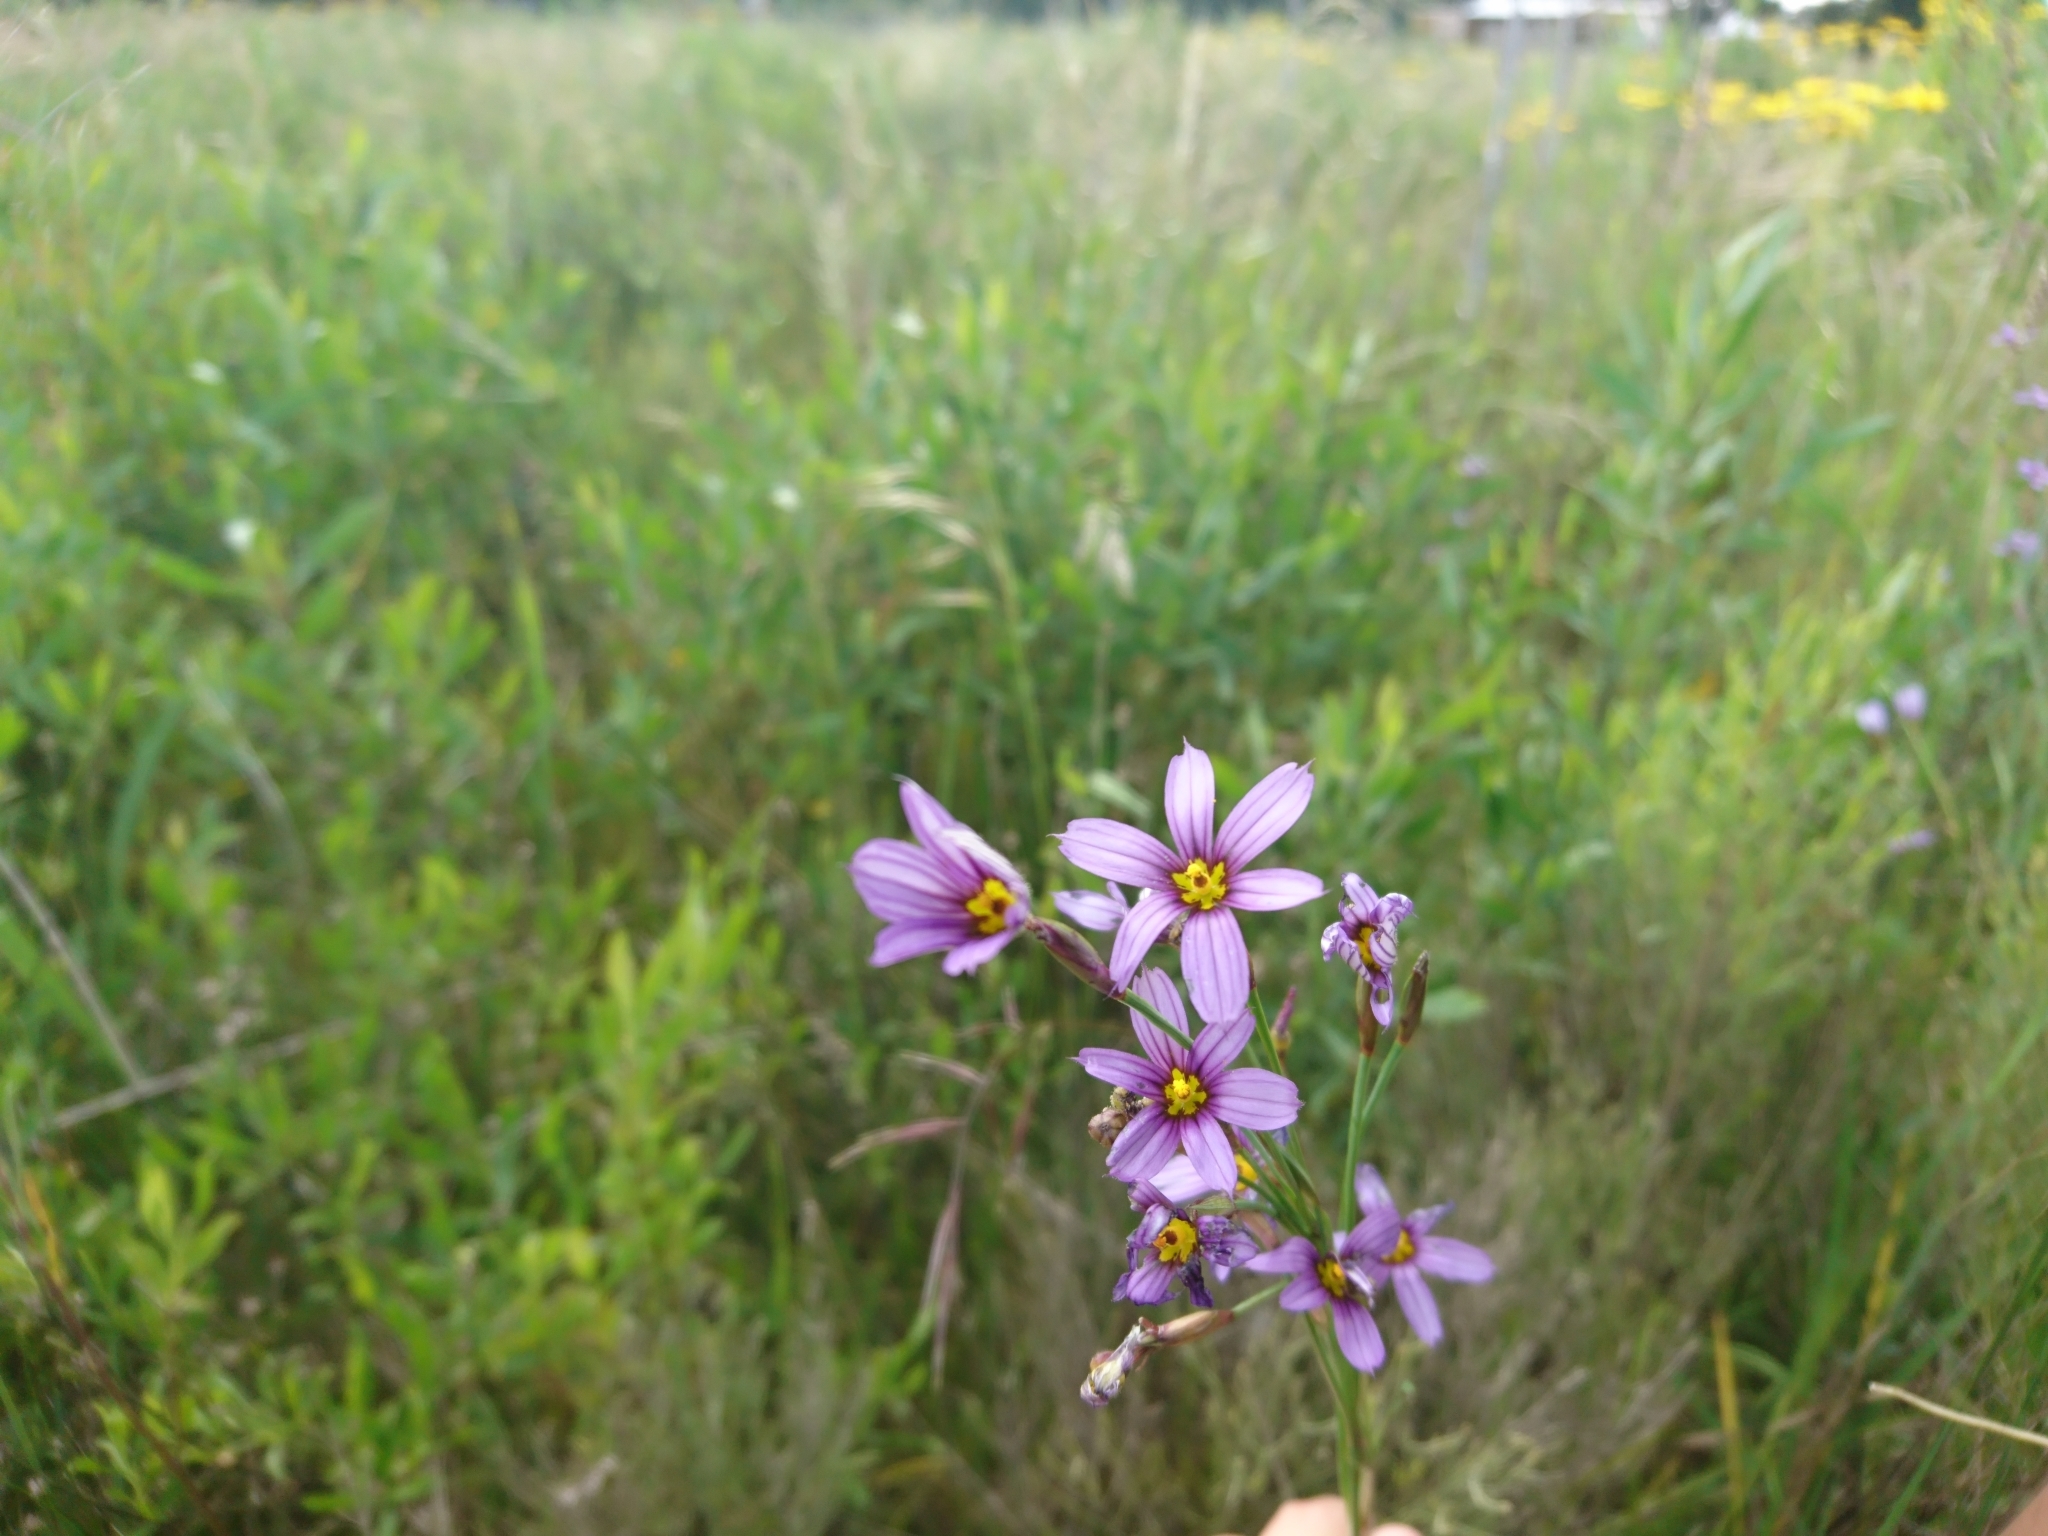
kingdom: Plantae
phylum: Tracheophyta
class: Liliopsida
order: Asparagales
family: Iridaceae
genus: Sisyrinchium
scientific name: Sisyrinchium platense
